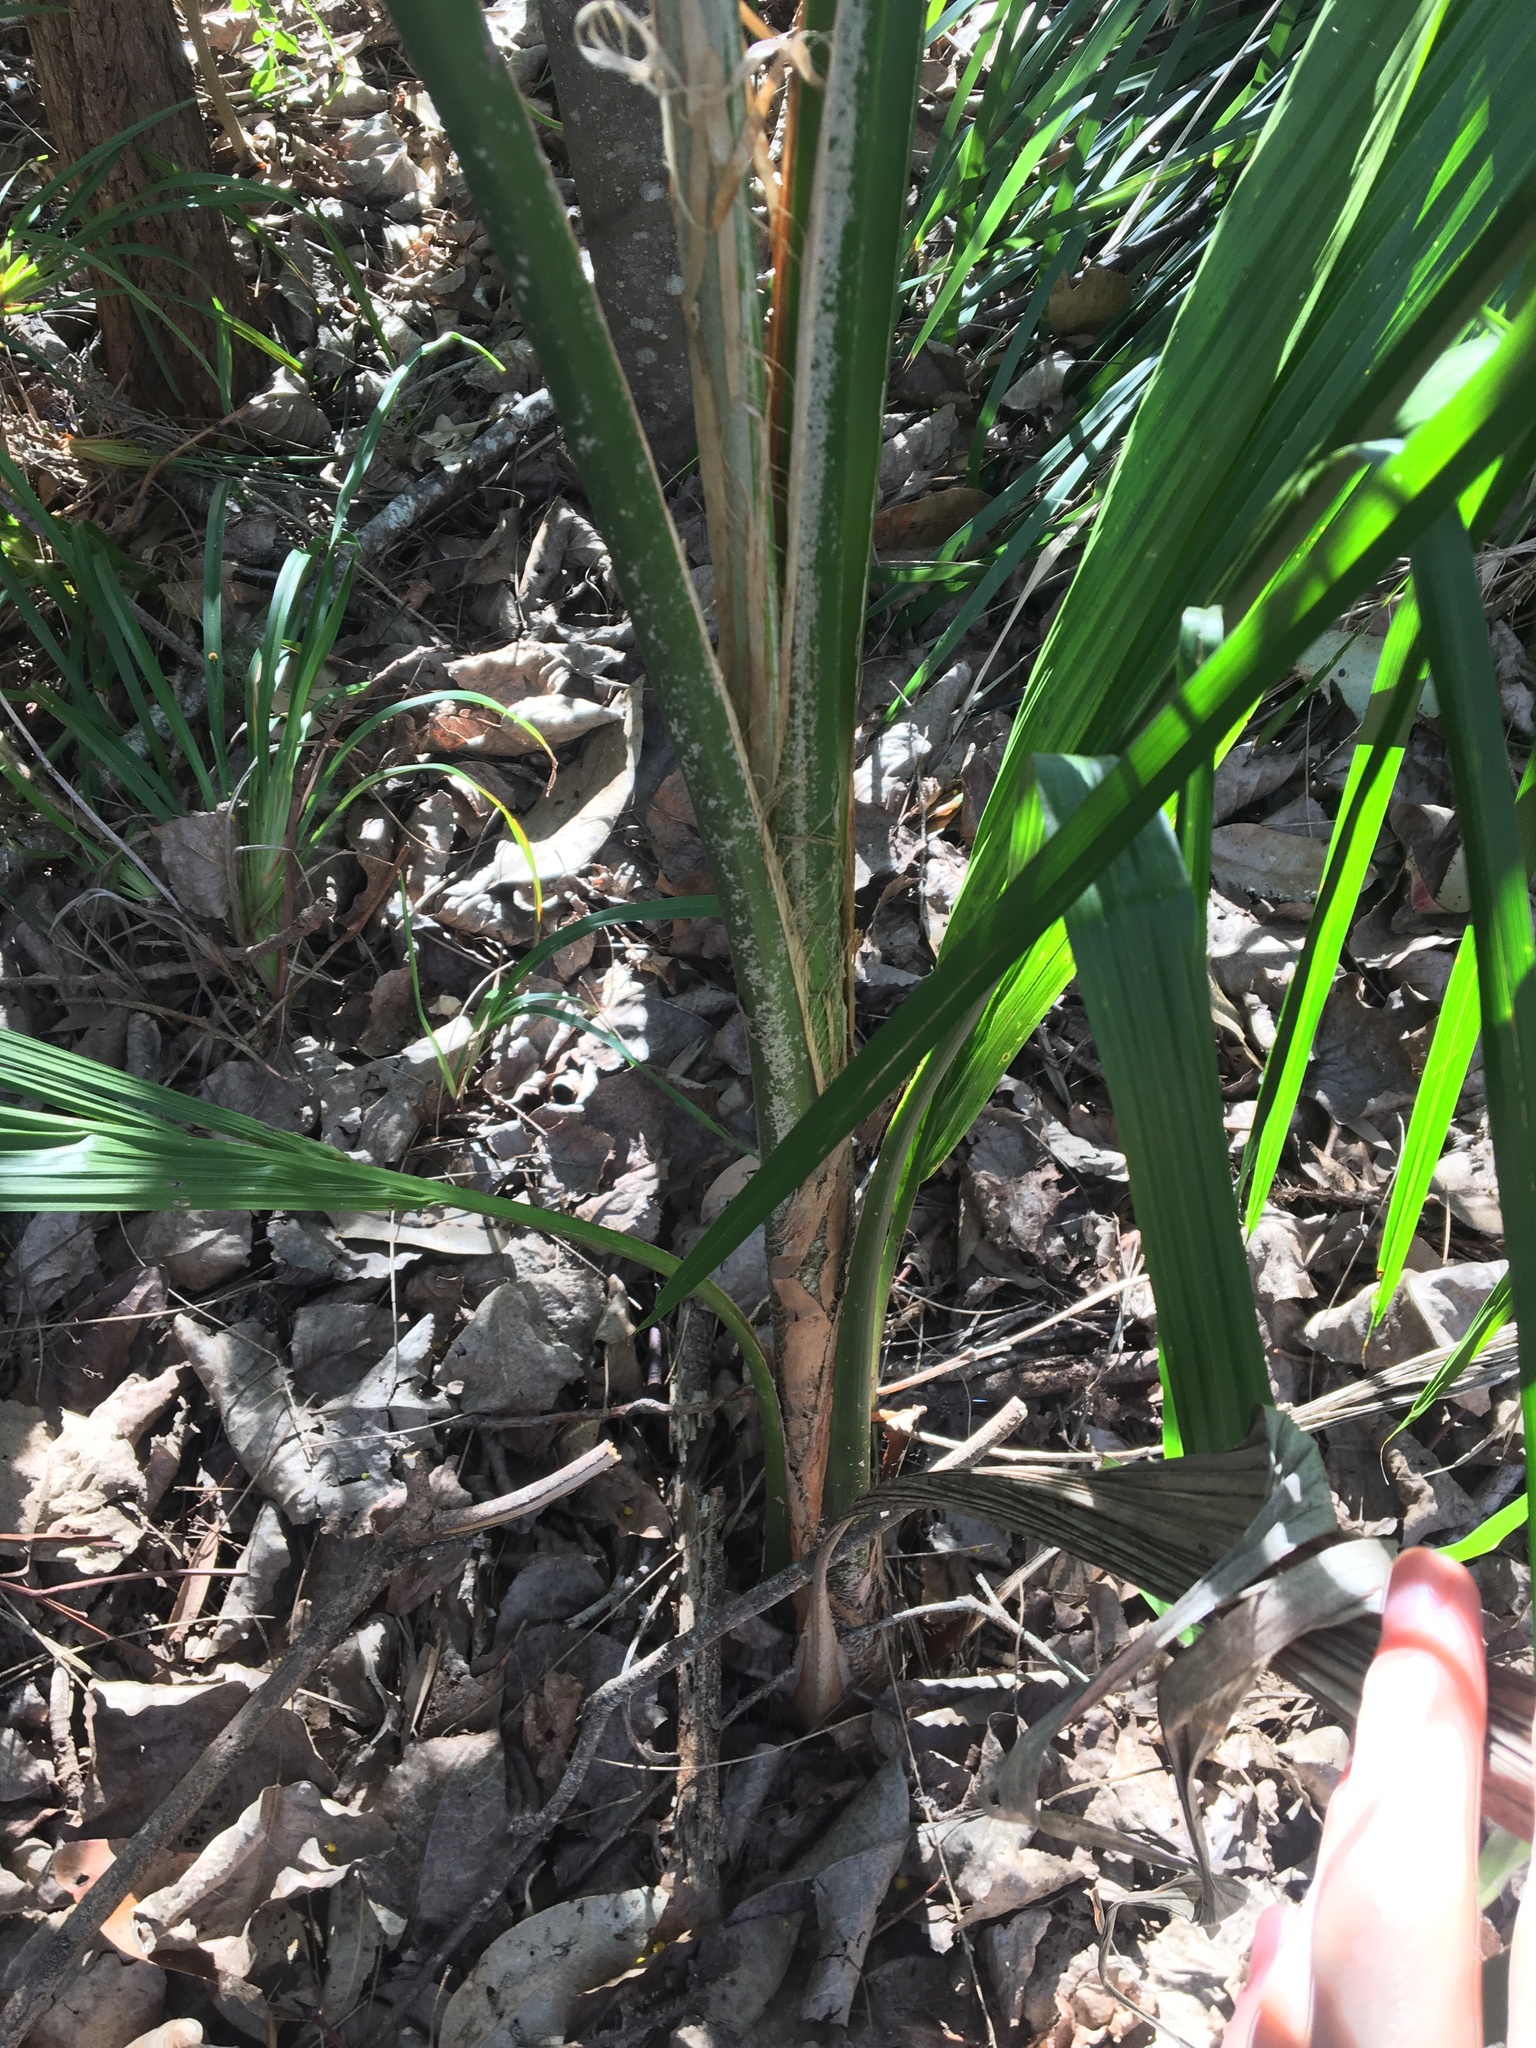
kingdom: Plantae
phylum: Tracheophyta
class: Liliopsida
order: Arecales
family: Arecaceae
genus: Syagrus
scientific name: Syagrus romanzoffiana
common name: Queen palm
